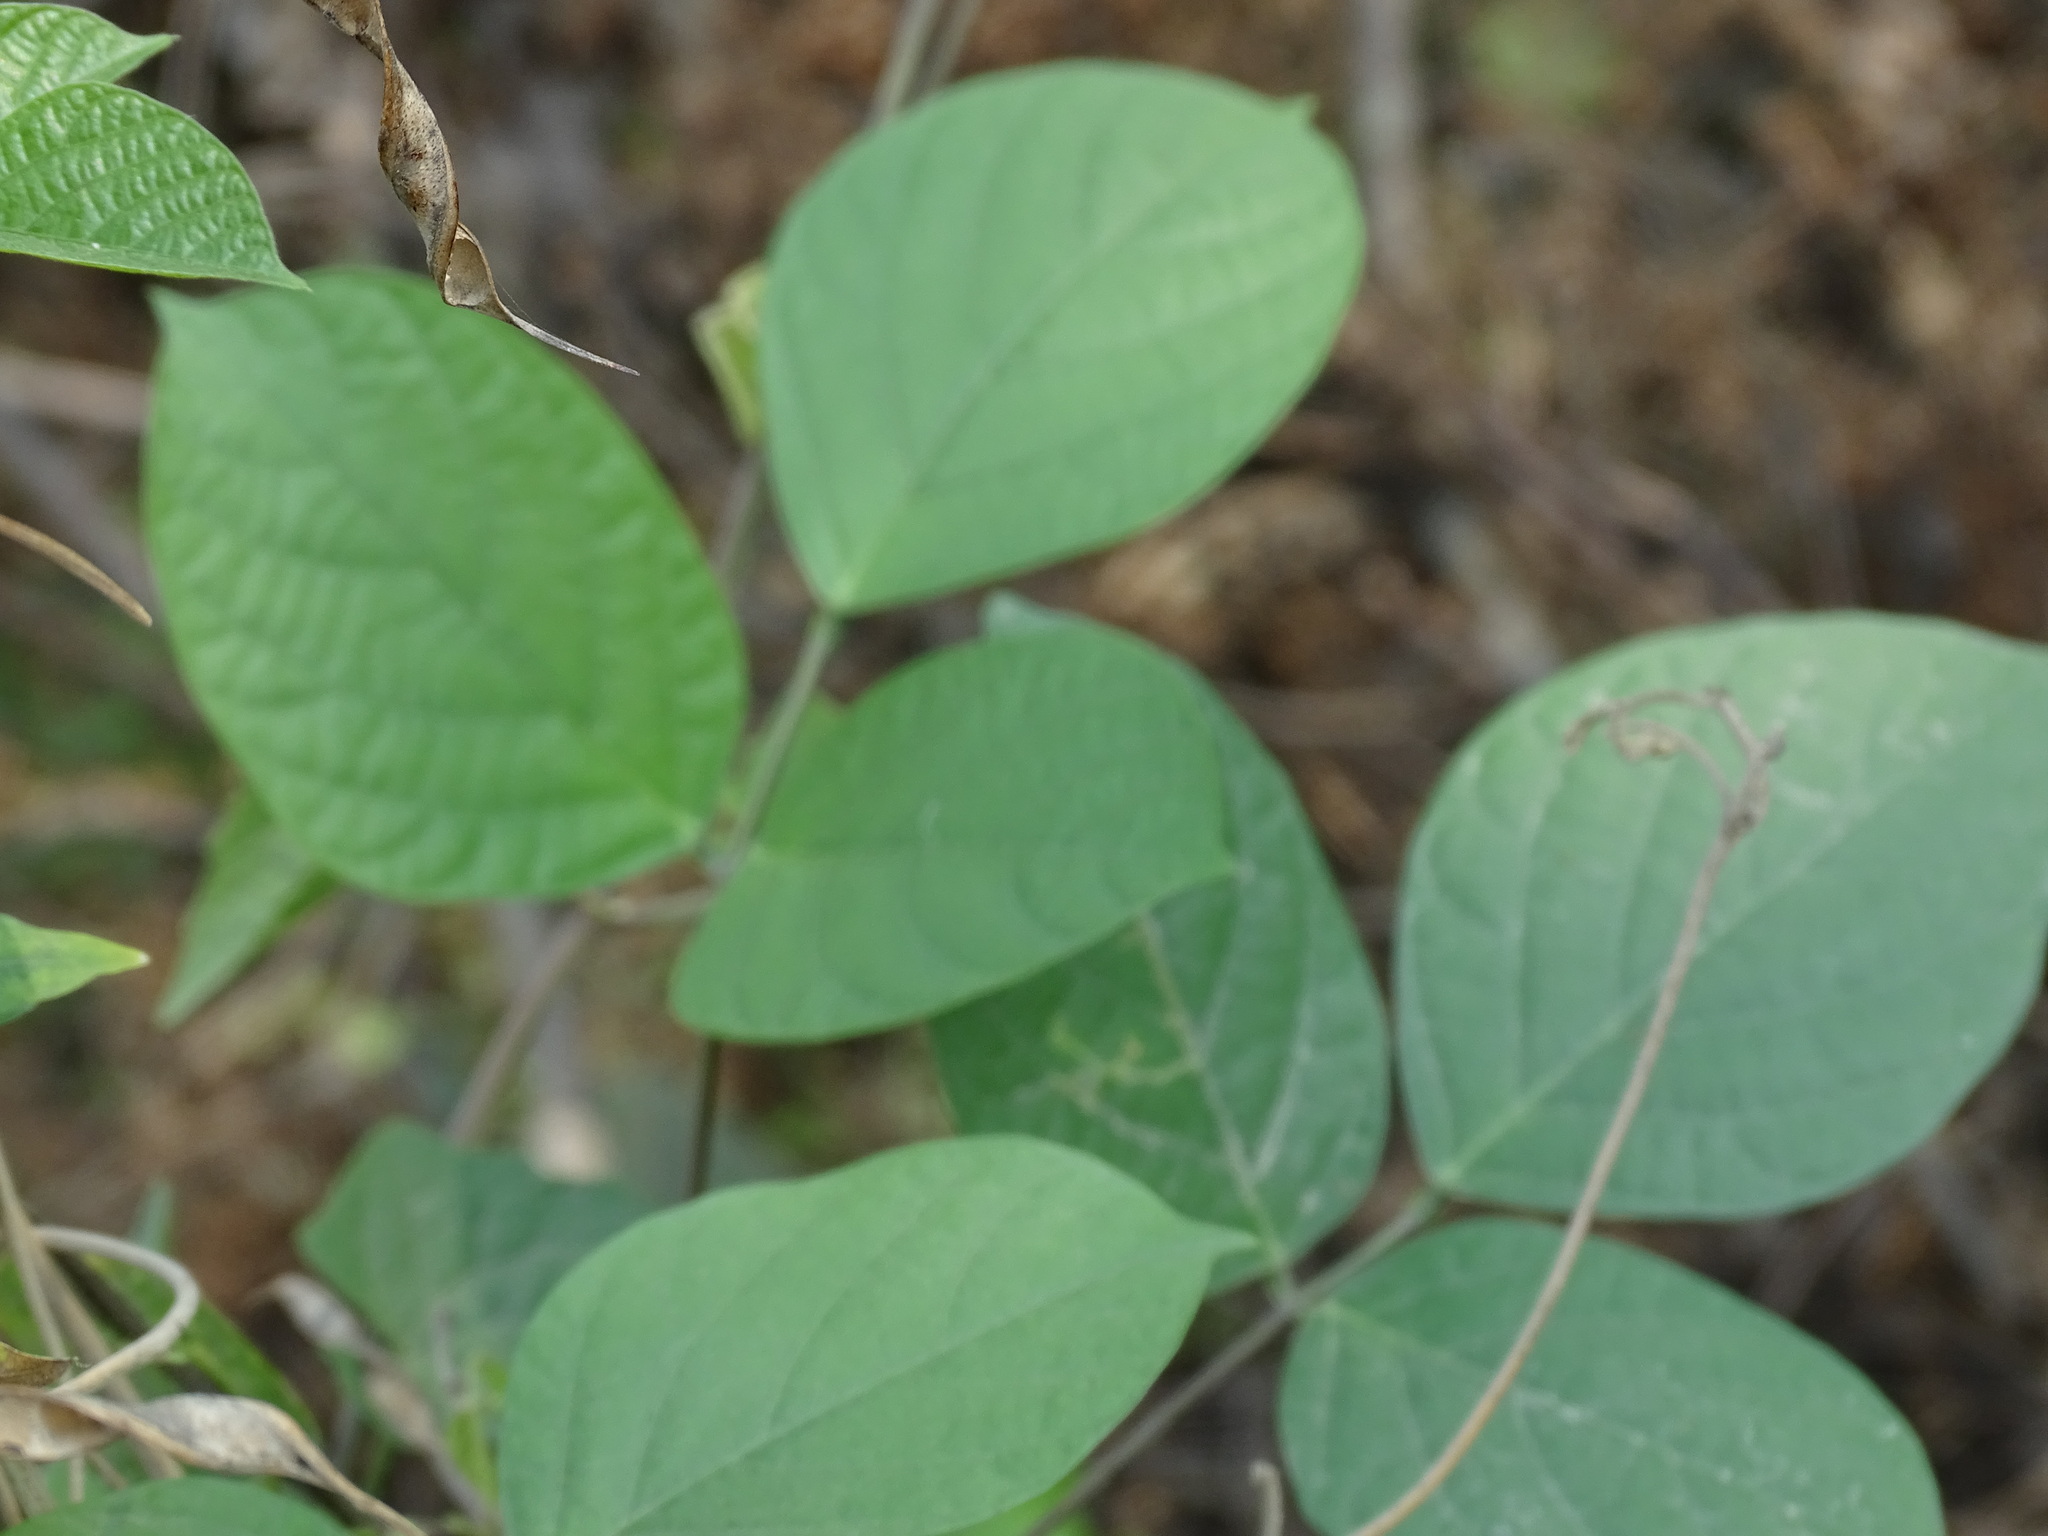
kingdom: Plantae
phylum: Tracheophyta
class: Magnoliopsida
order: Fabales
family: Fabaceae
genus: Centrosema
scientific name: Centrosema plumieri
